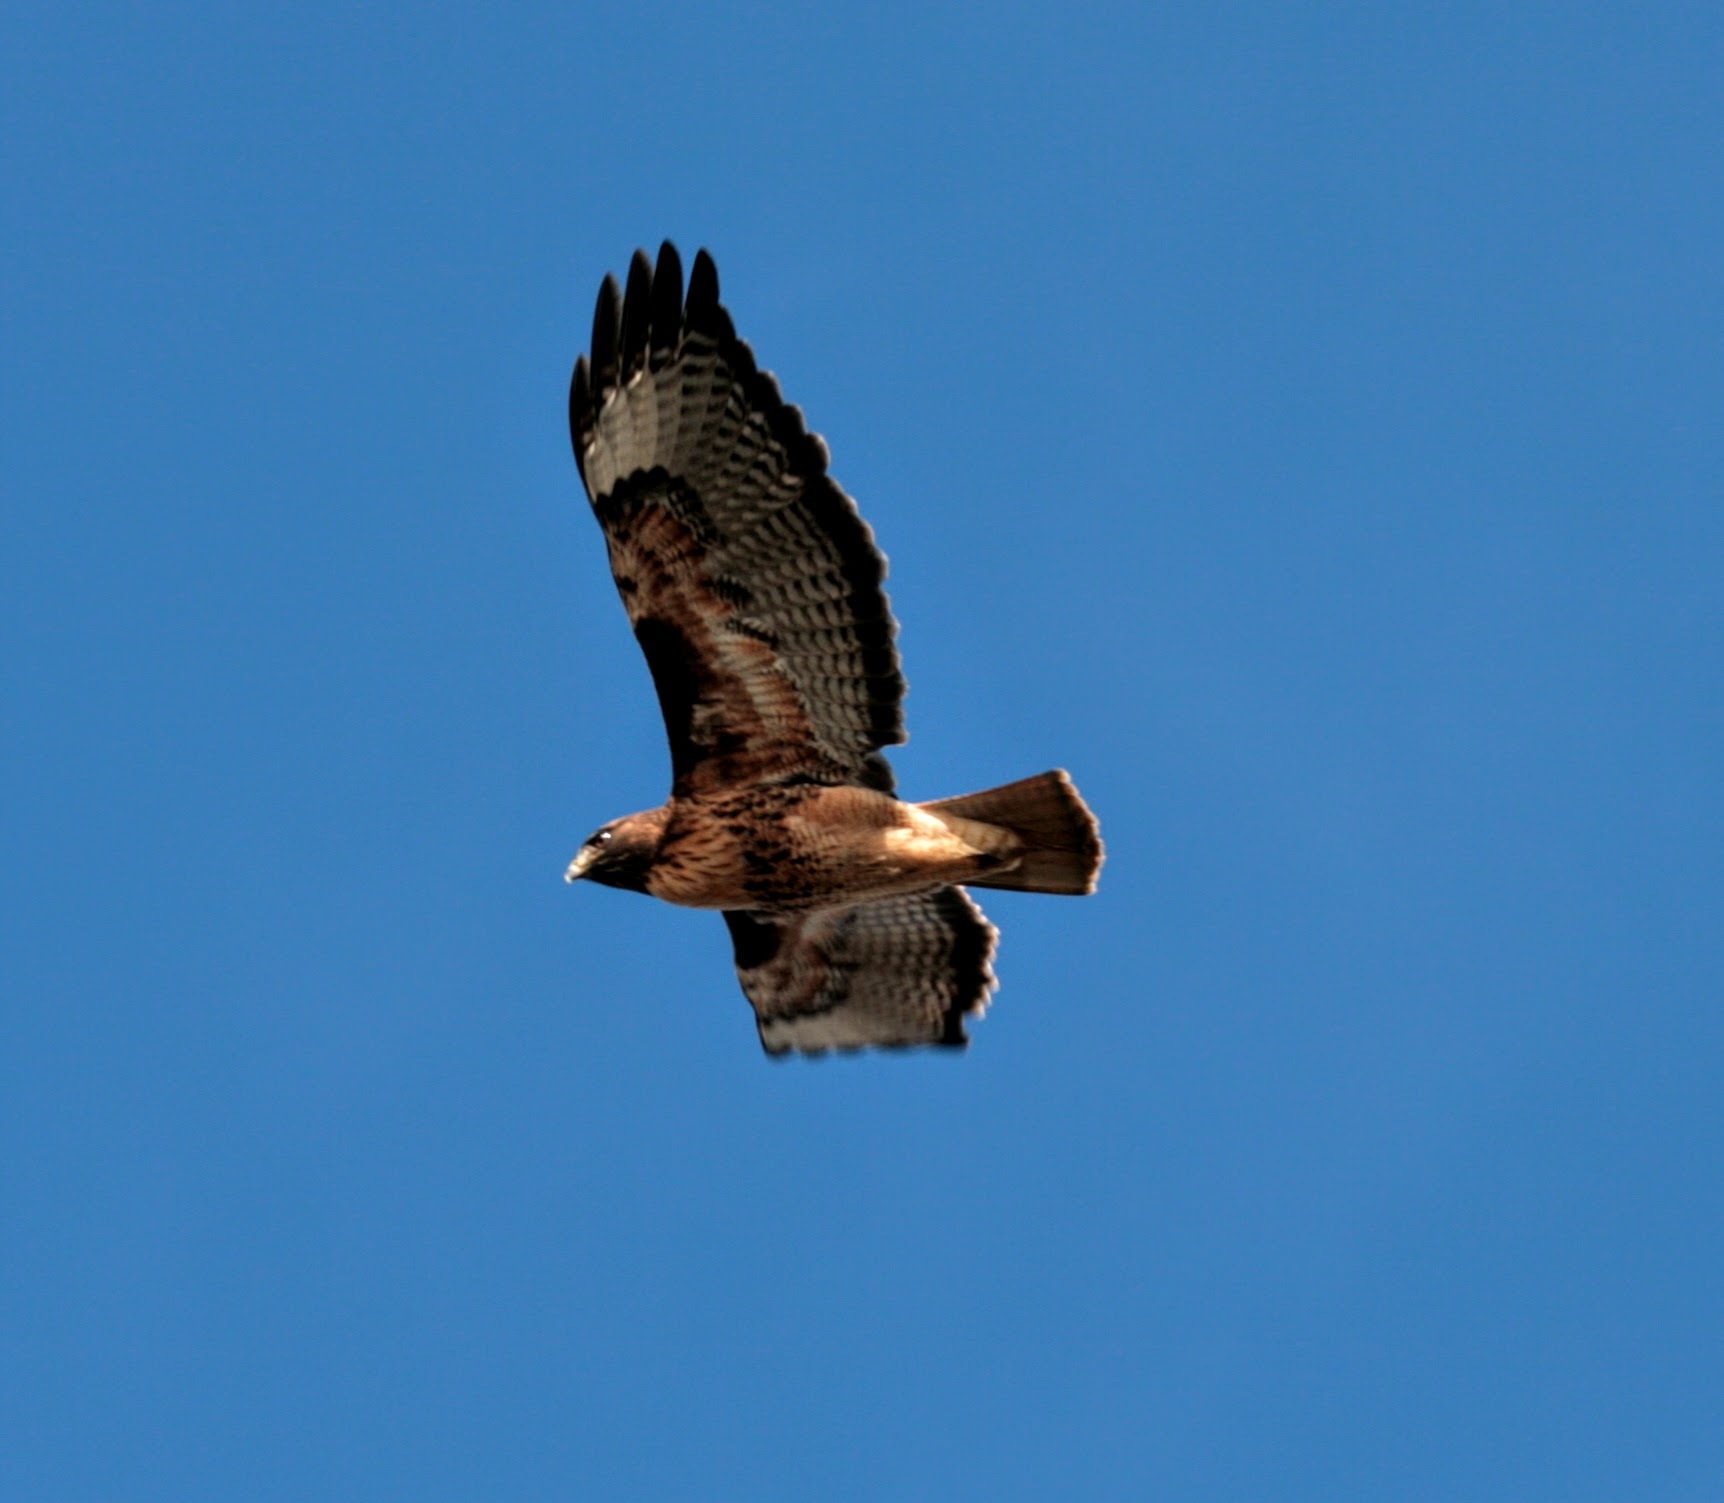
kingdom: Animalia
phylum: Chordata
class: Aves
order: Accipitriformes
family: Accipitridae
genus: Buteo
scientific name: Buteo jamaicensis
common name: Red-tailed hawk
